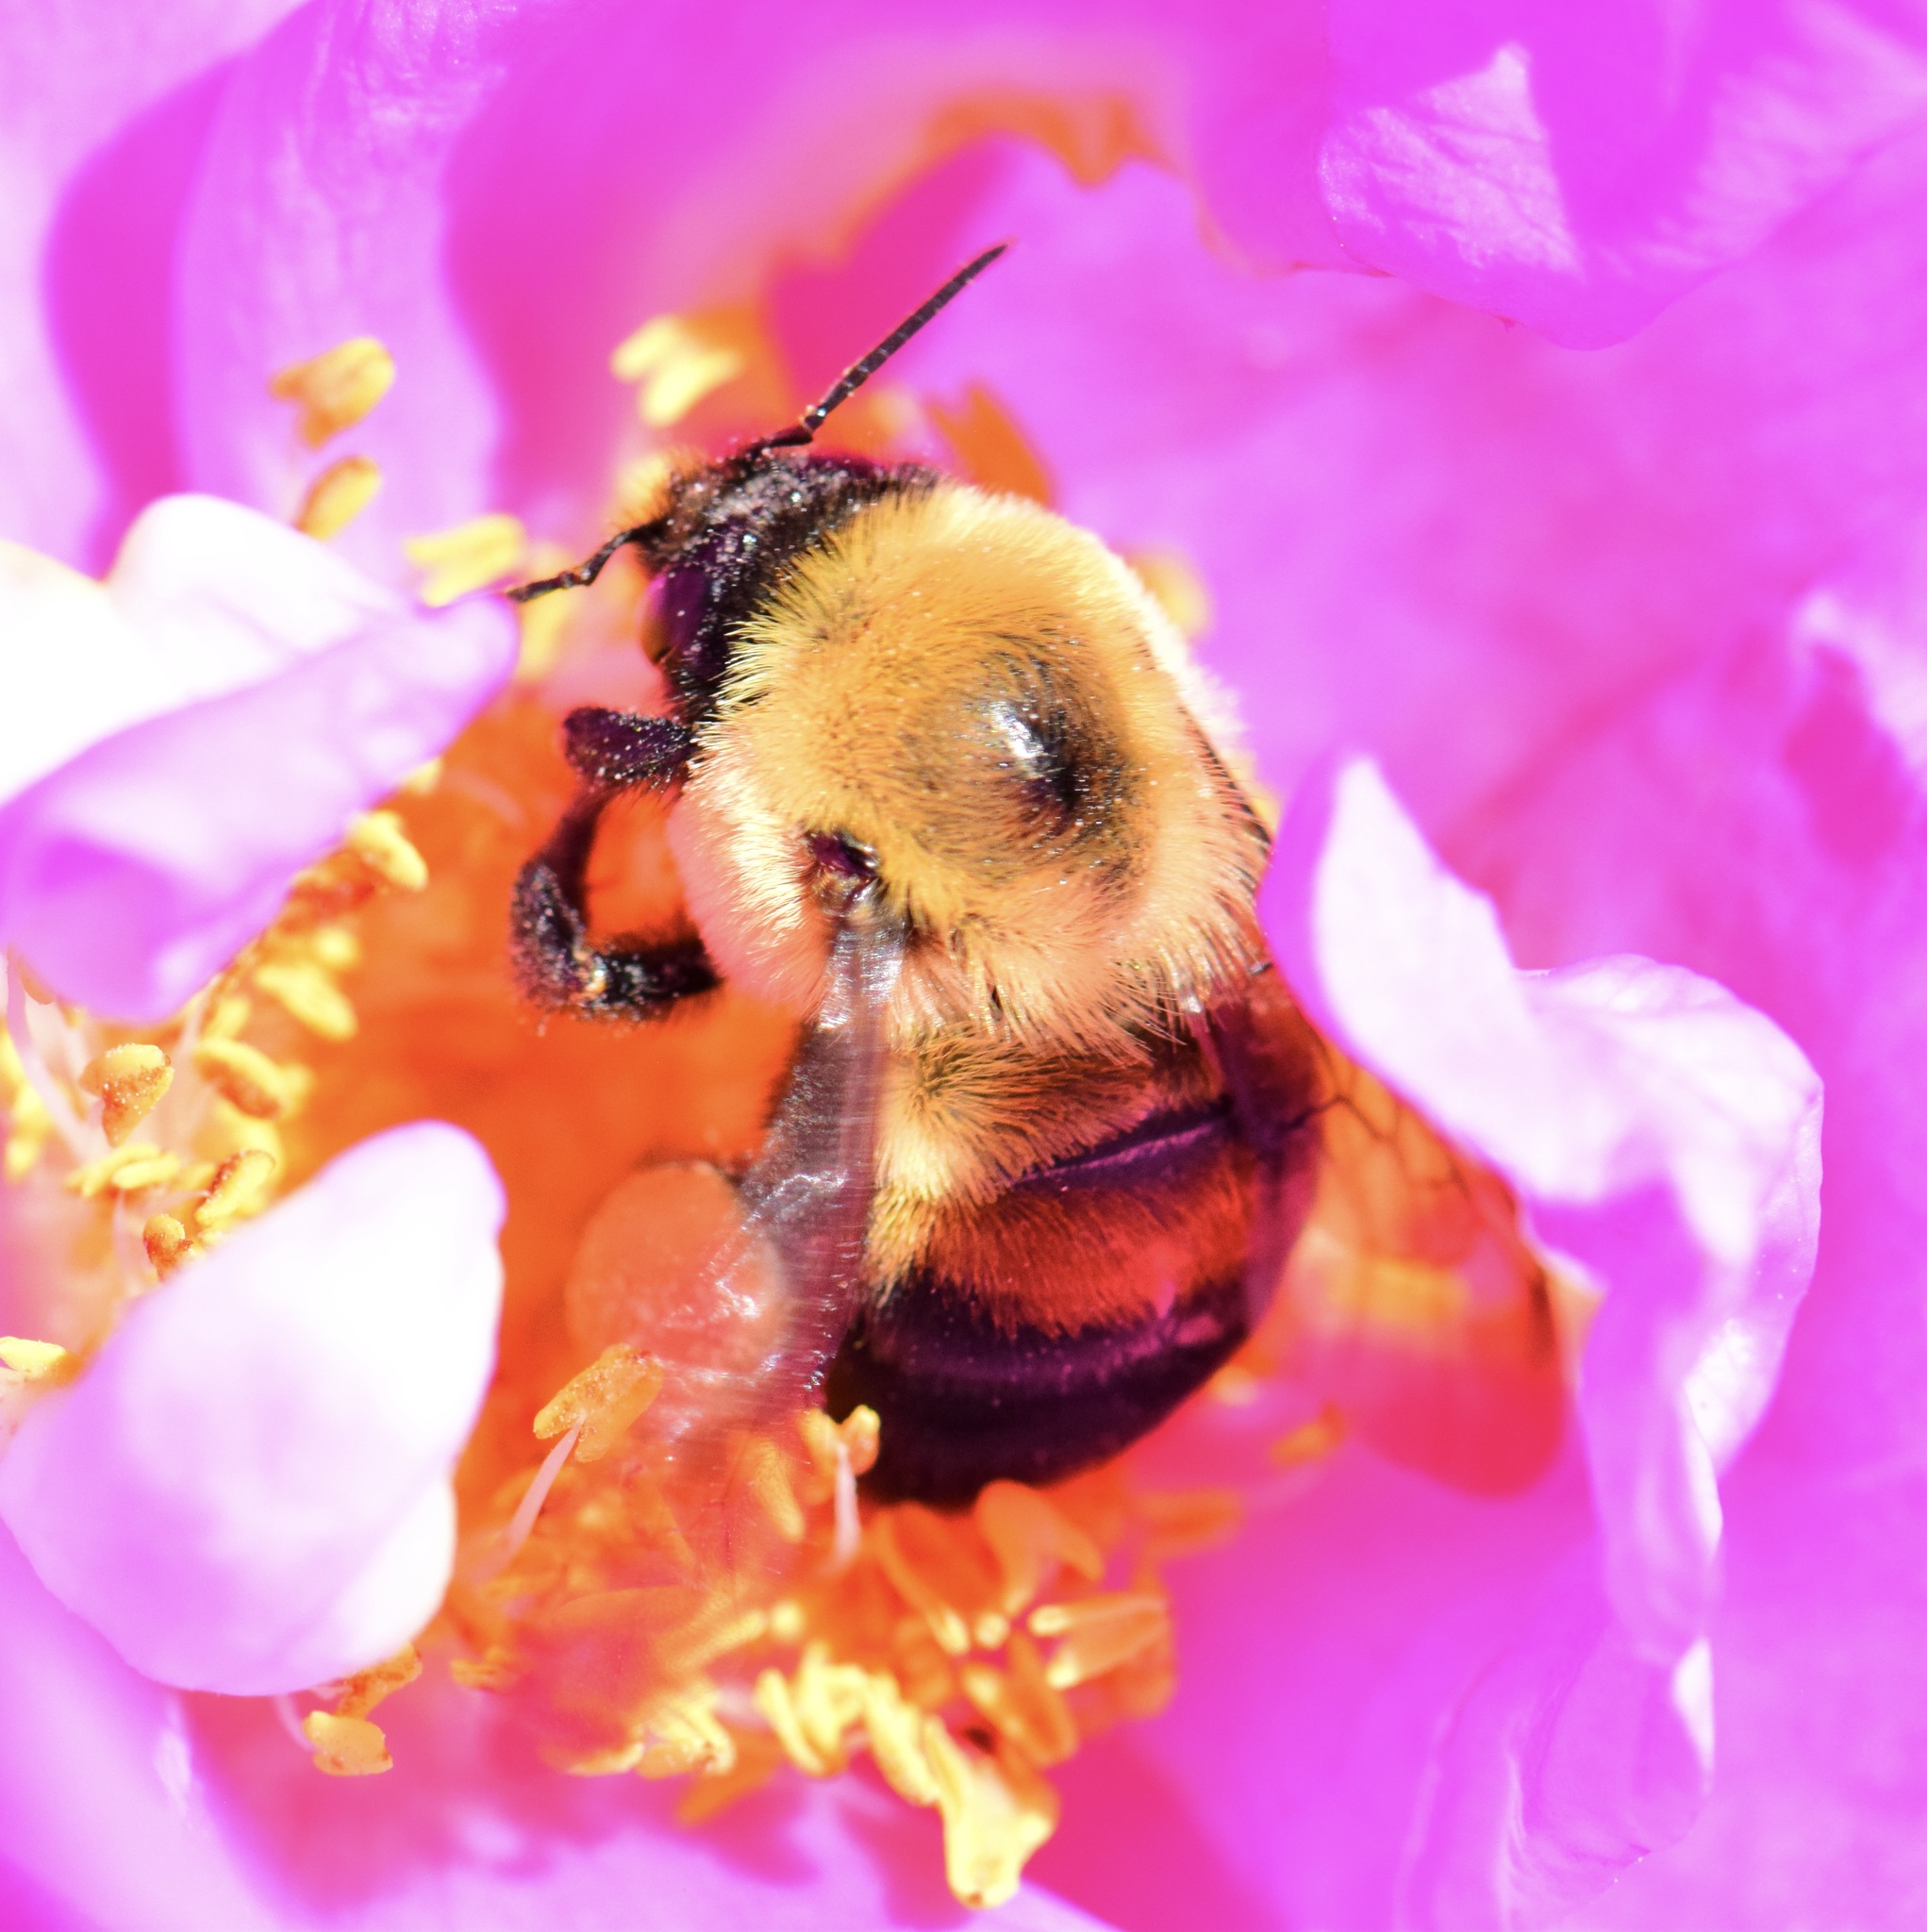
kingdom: Animalia
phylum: Arthropoda
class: Insecta
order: Hymenoptera
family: Apidae
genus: Bombus
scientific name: Bombus griseocollis
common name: Brown-belted bumble bee
